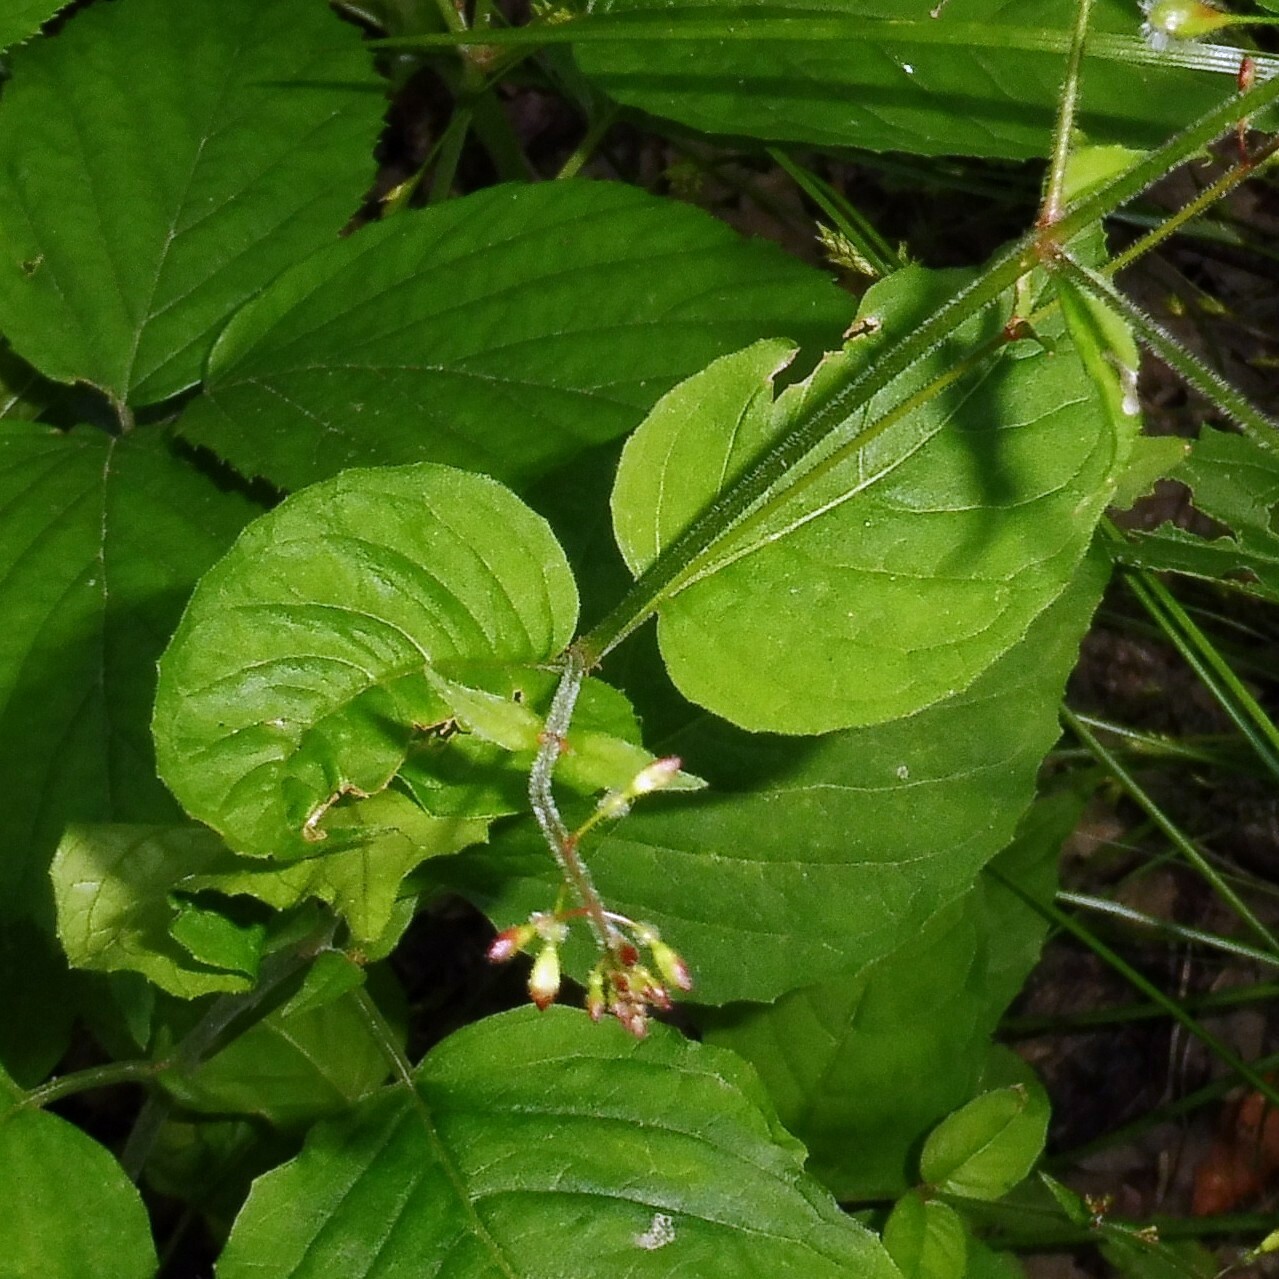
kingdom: Plantae
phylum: Tracheophyta
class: Magnoliopsida
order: Myrtales
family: Onagraceae
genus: Circaea
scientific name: Circaea lutetiana
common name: Enchanter's-nightshade
